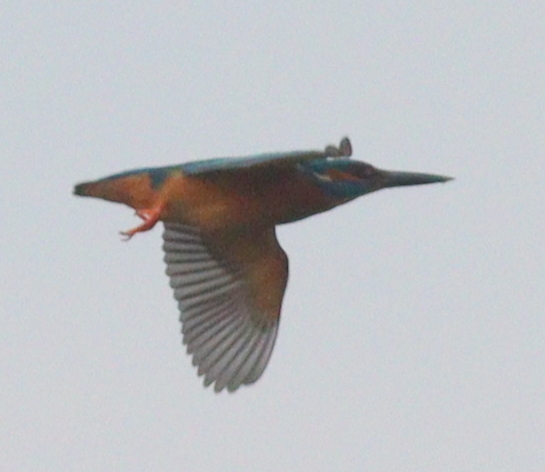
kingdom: Animalia
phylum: Chordata
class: Aves
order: Coraciiformes
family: Alcedinidae
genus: Alcedo
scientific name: Alcedo atthis
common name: Common kingfisher
